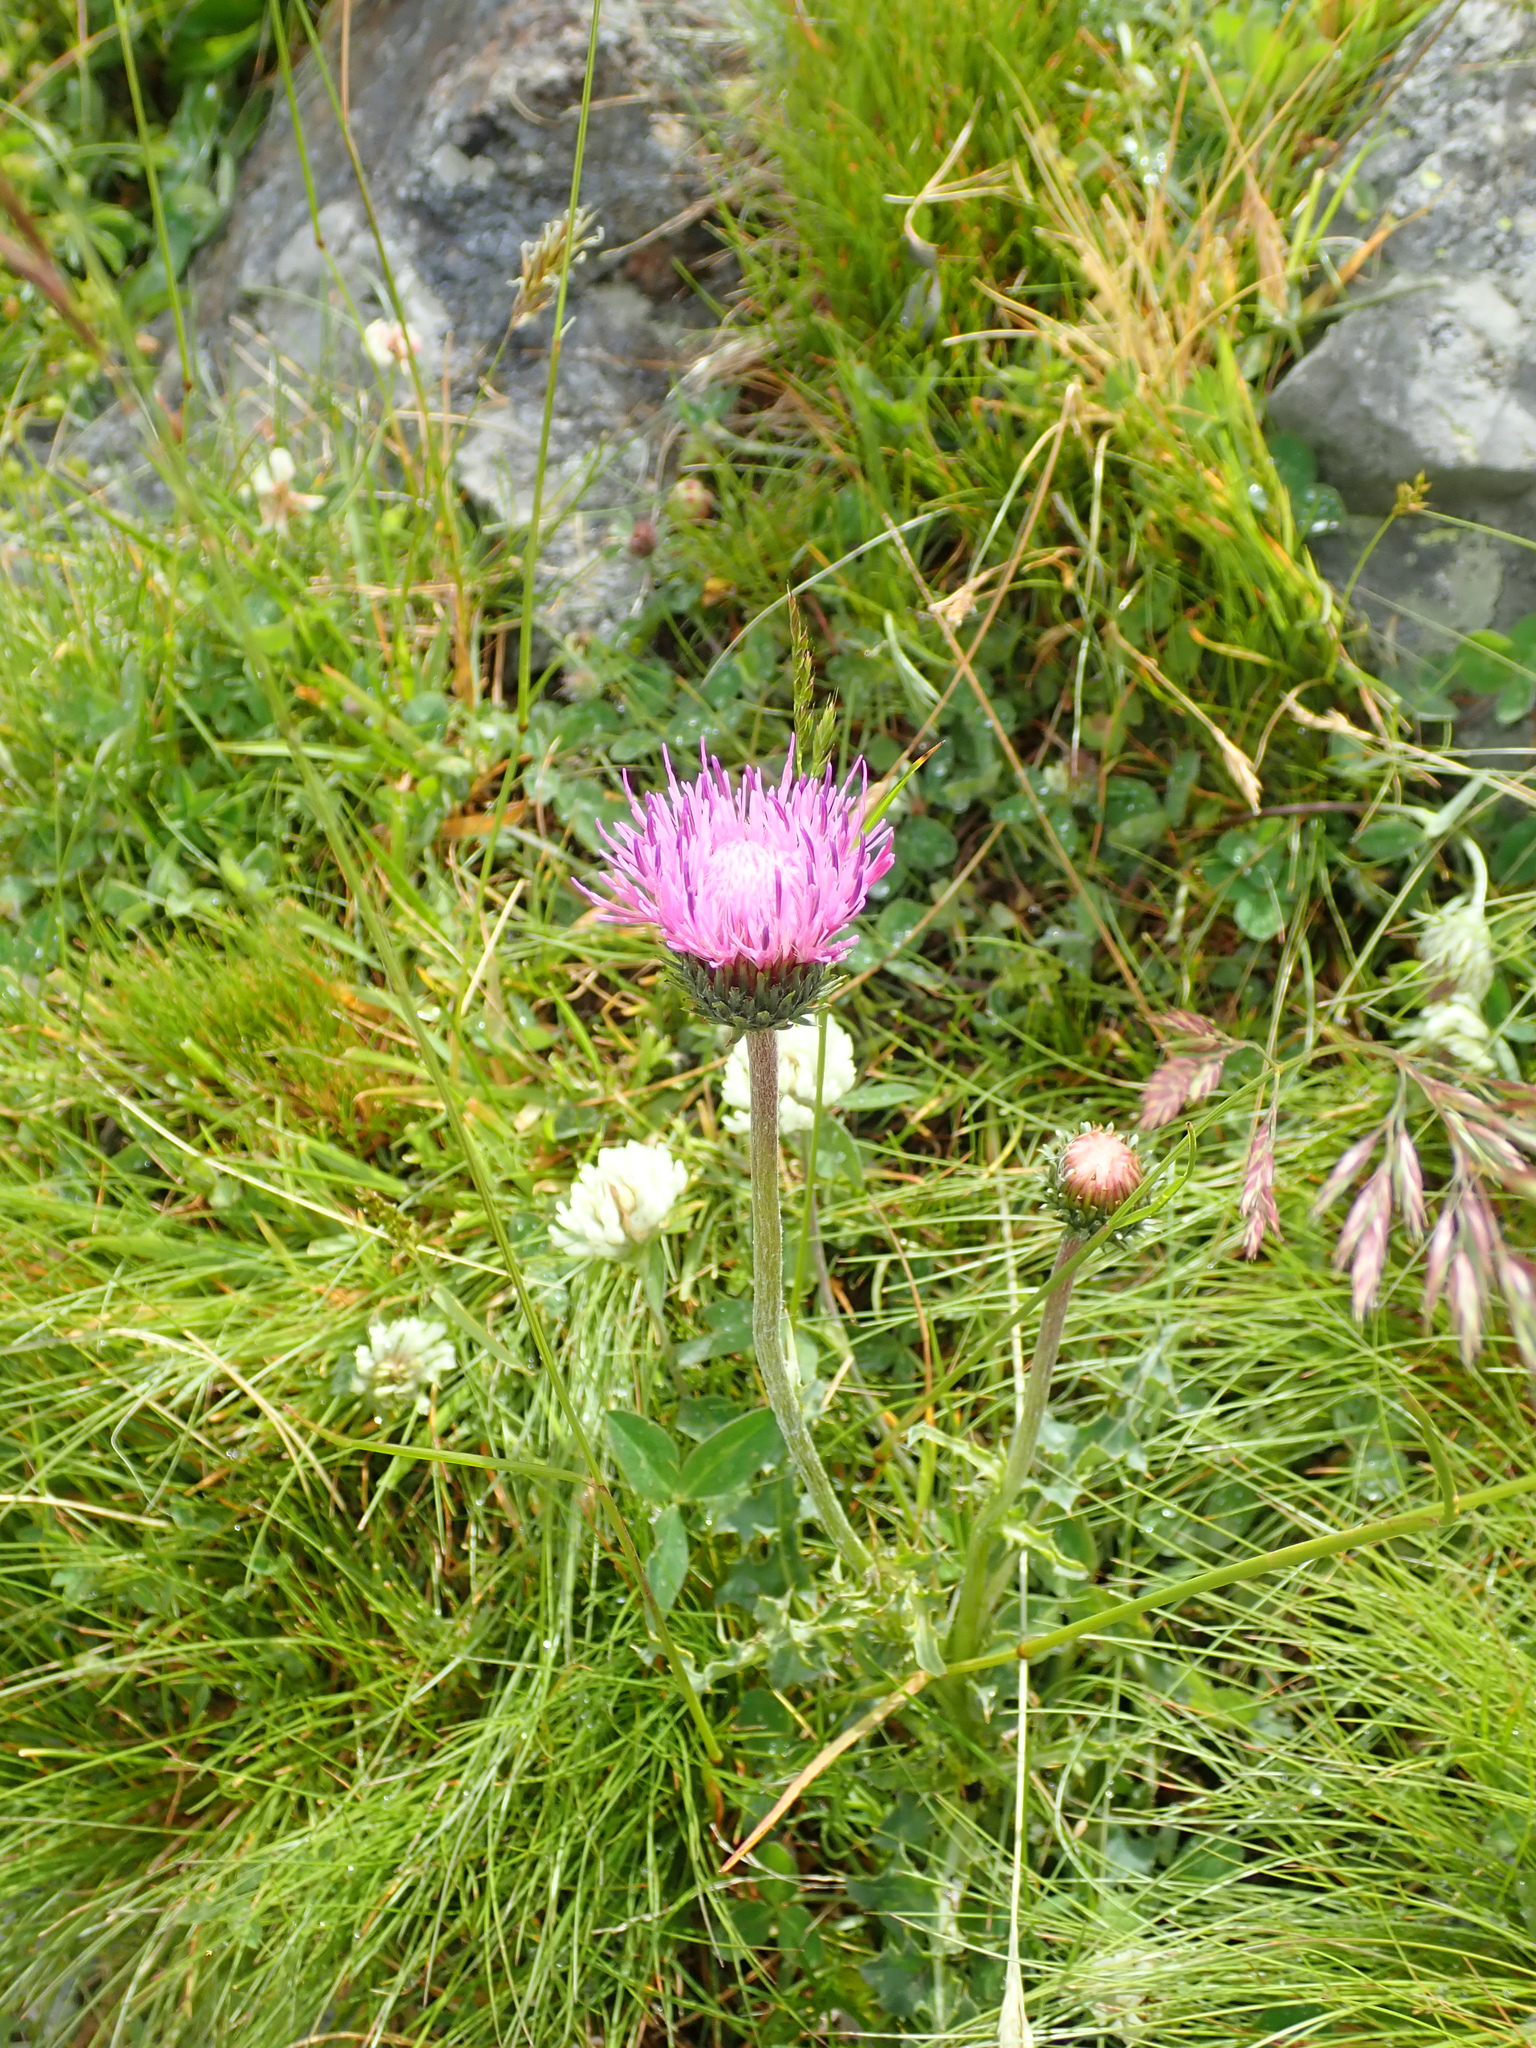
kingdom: Plantae
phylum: Tracheophyta
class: Magnoliopsida
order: Asterales
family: Asteraceae
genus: Carduus
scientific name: Carduus defloratus
